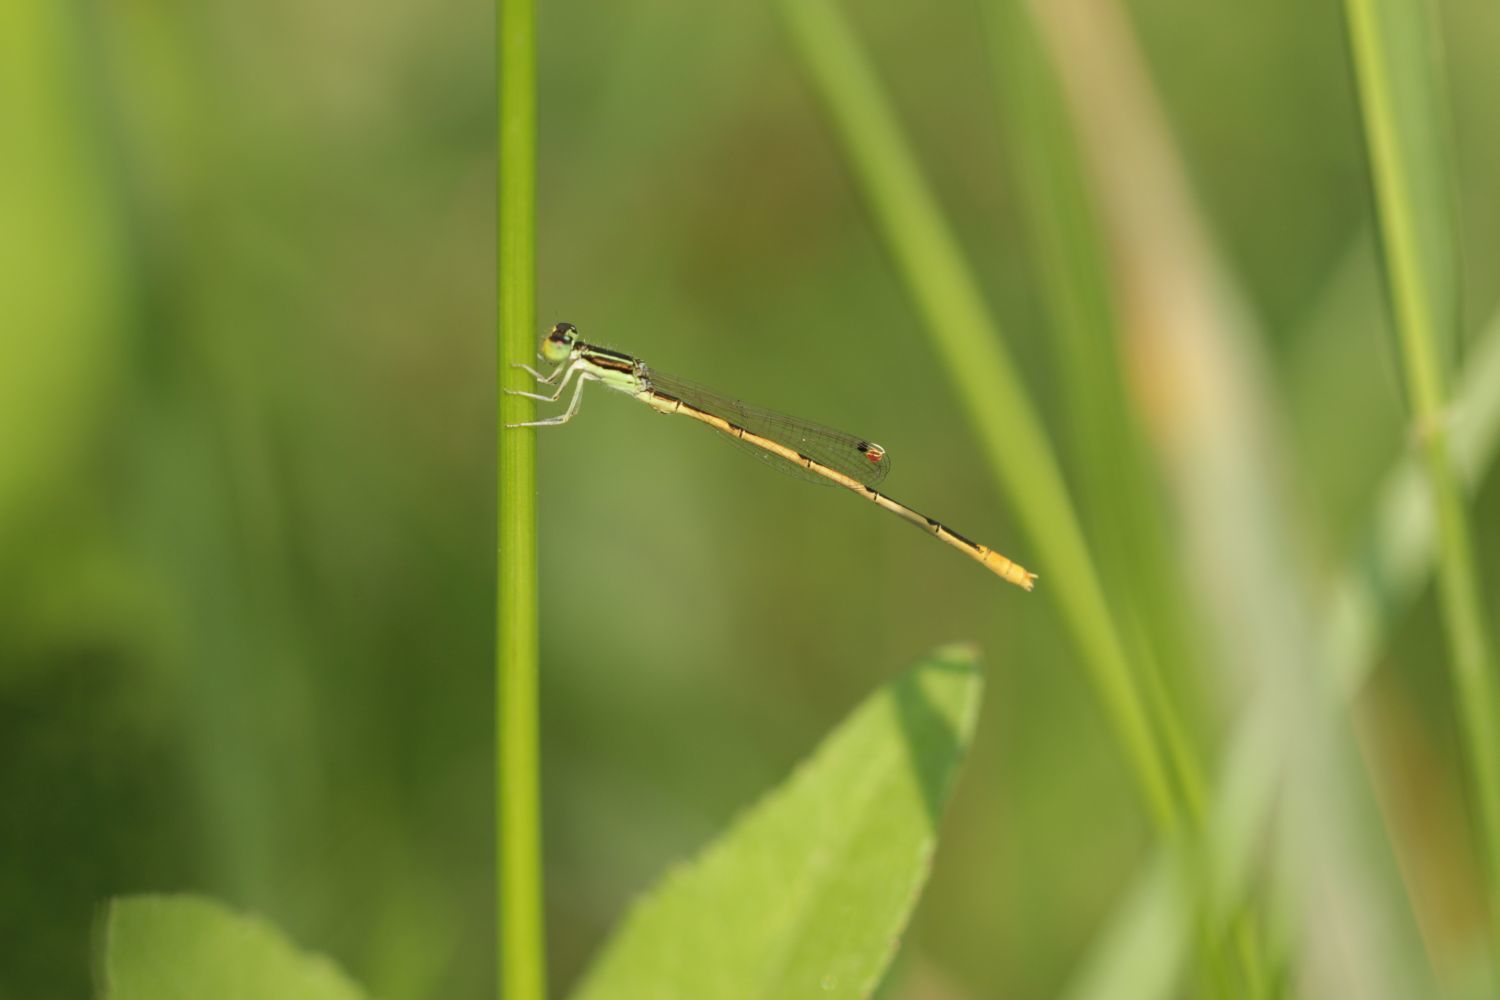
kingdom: Animalia
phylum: Arthropoda
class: Insecta
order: Odonata
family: Coenagrionidae
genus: Ischnura
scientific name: Ischnura hastata
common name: Citrine forktail
